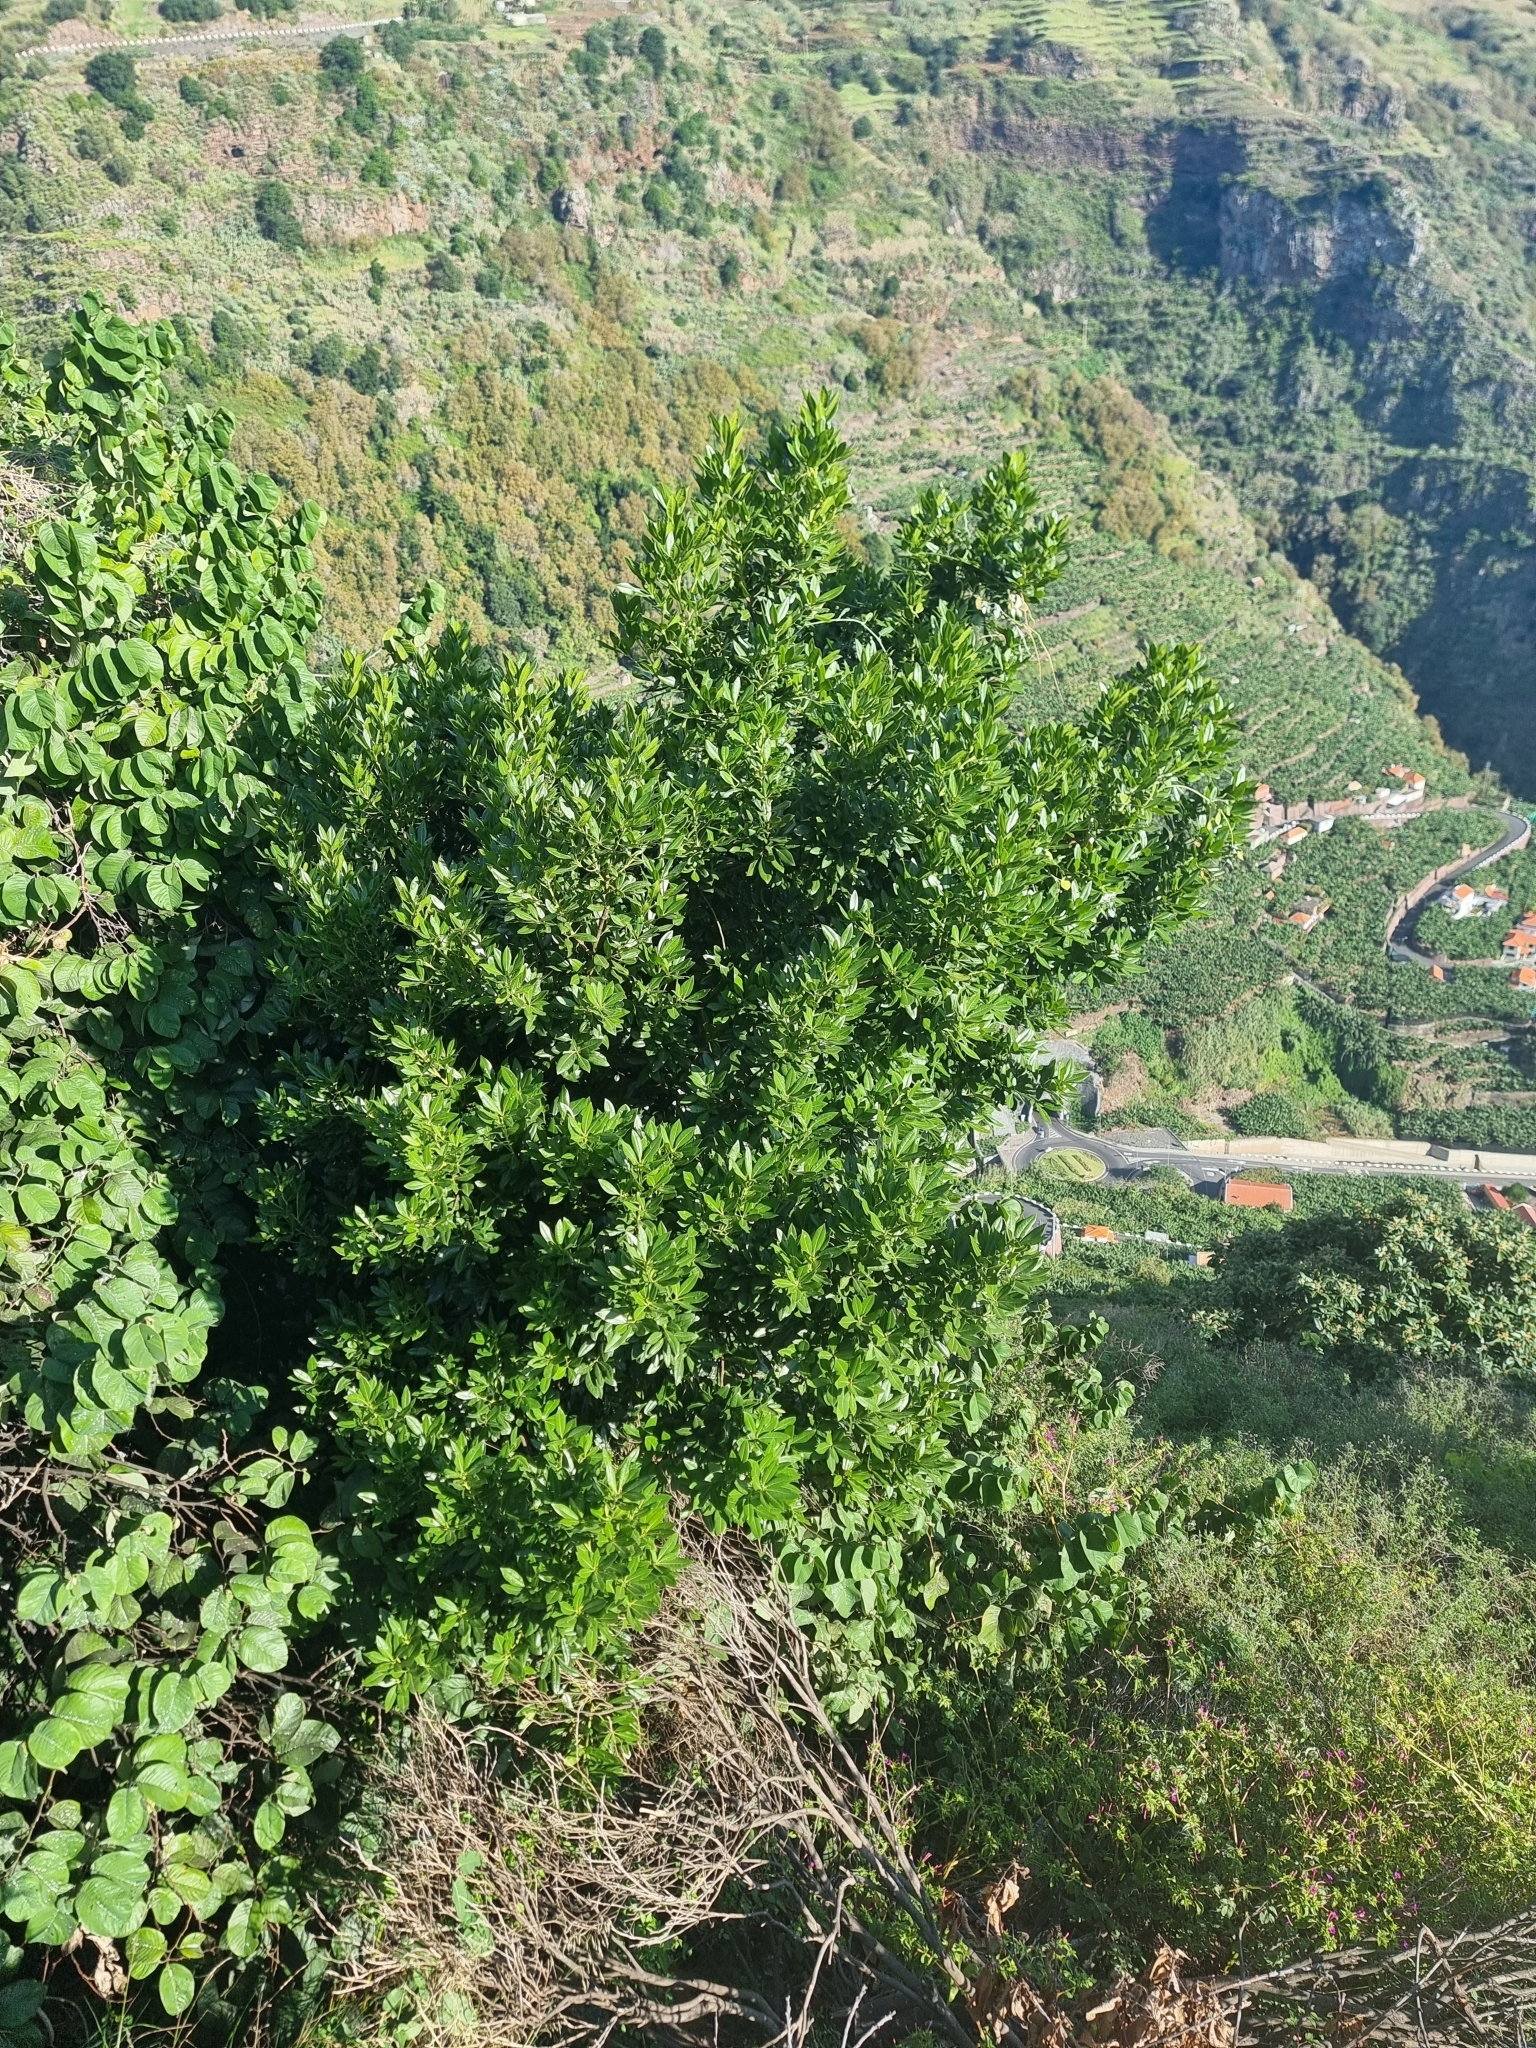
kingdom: Plantae
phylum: Tracheophyta
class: Magnoliopsida
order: Laurales
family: Lauraceae
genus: Apollonias
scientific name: Apollonias barbujana
